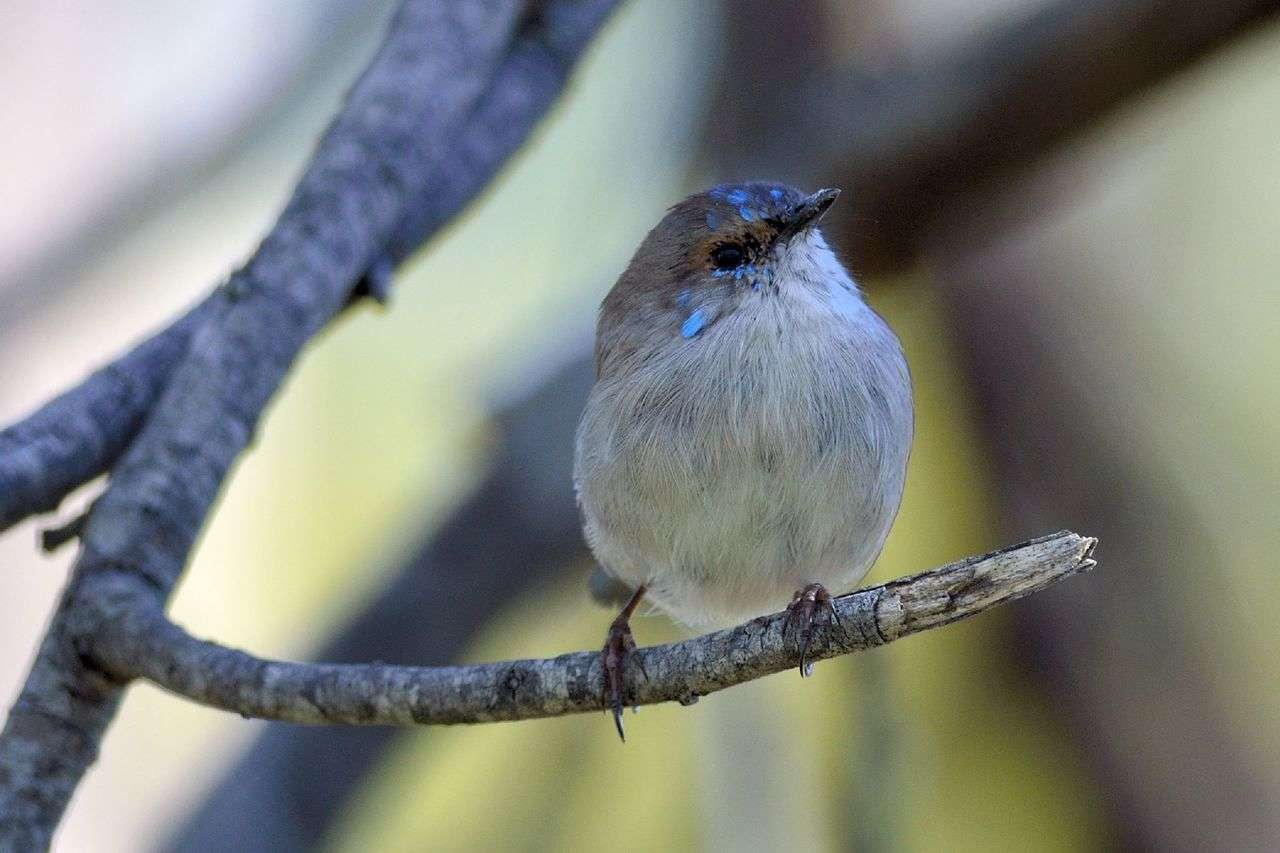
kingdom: Animalia
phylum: Chordata
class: Aves
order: Passeriformes
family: Maluridae
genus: Malurus
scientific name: Malurus cyaneus
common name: Superb fairywren
